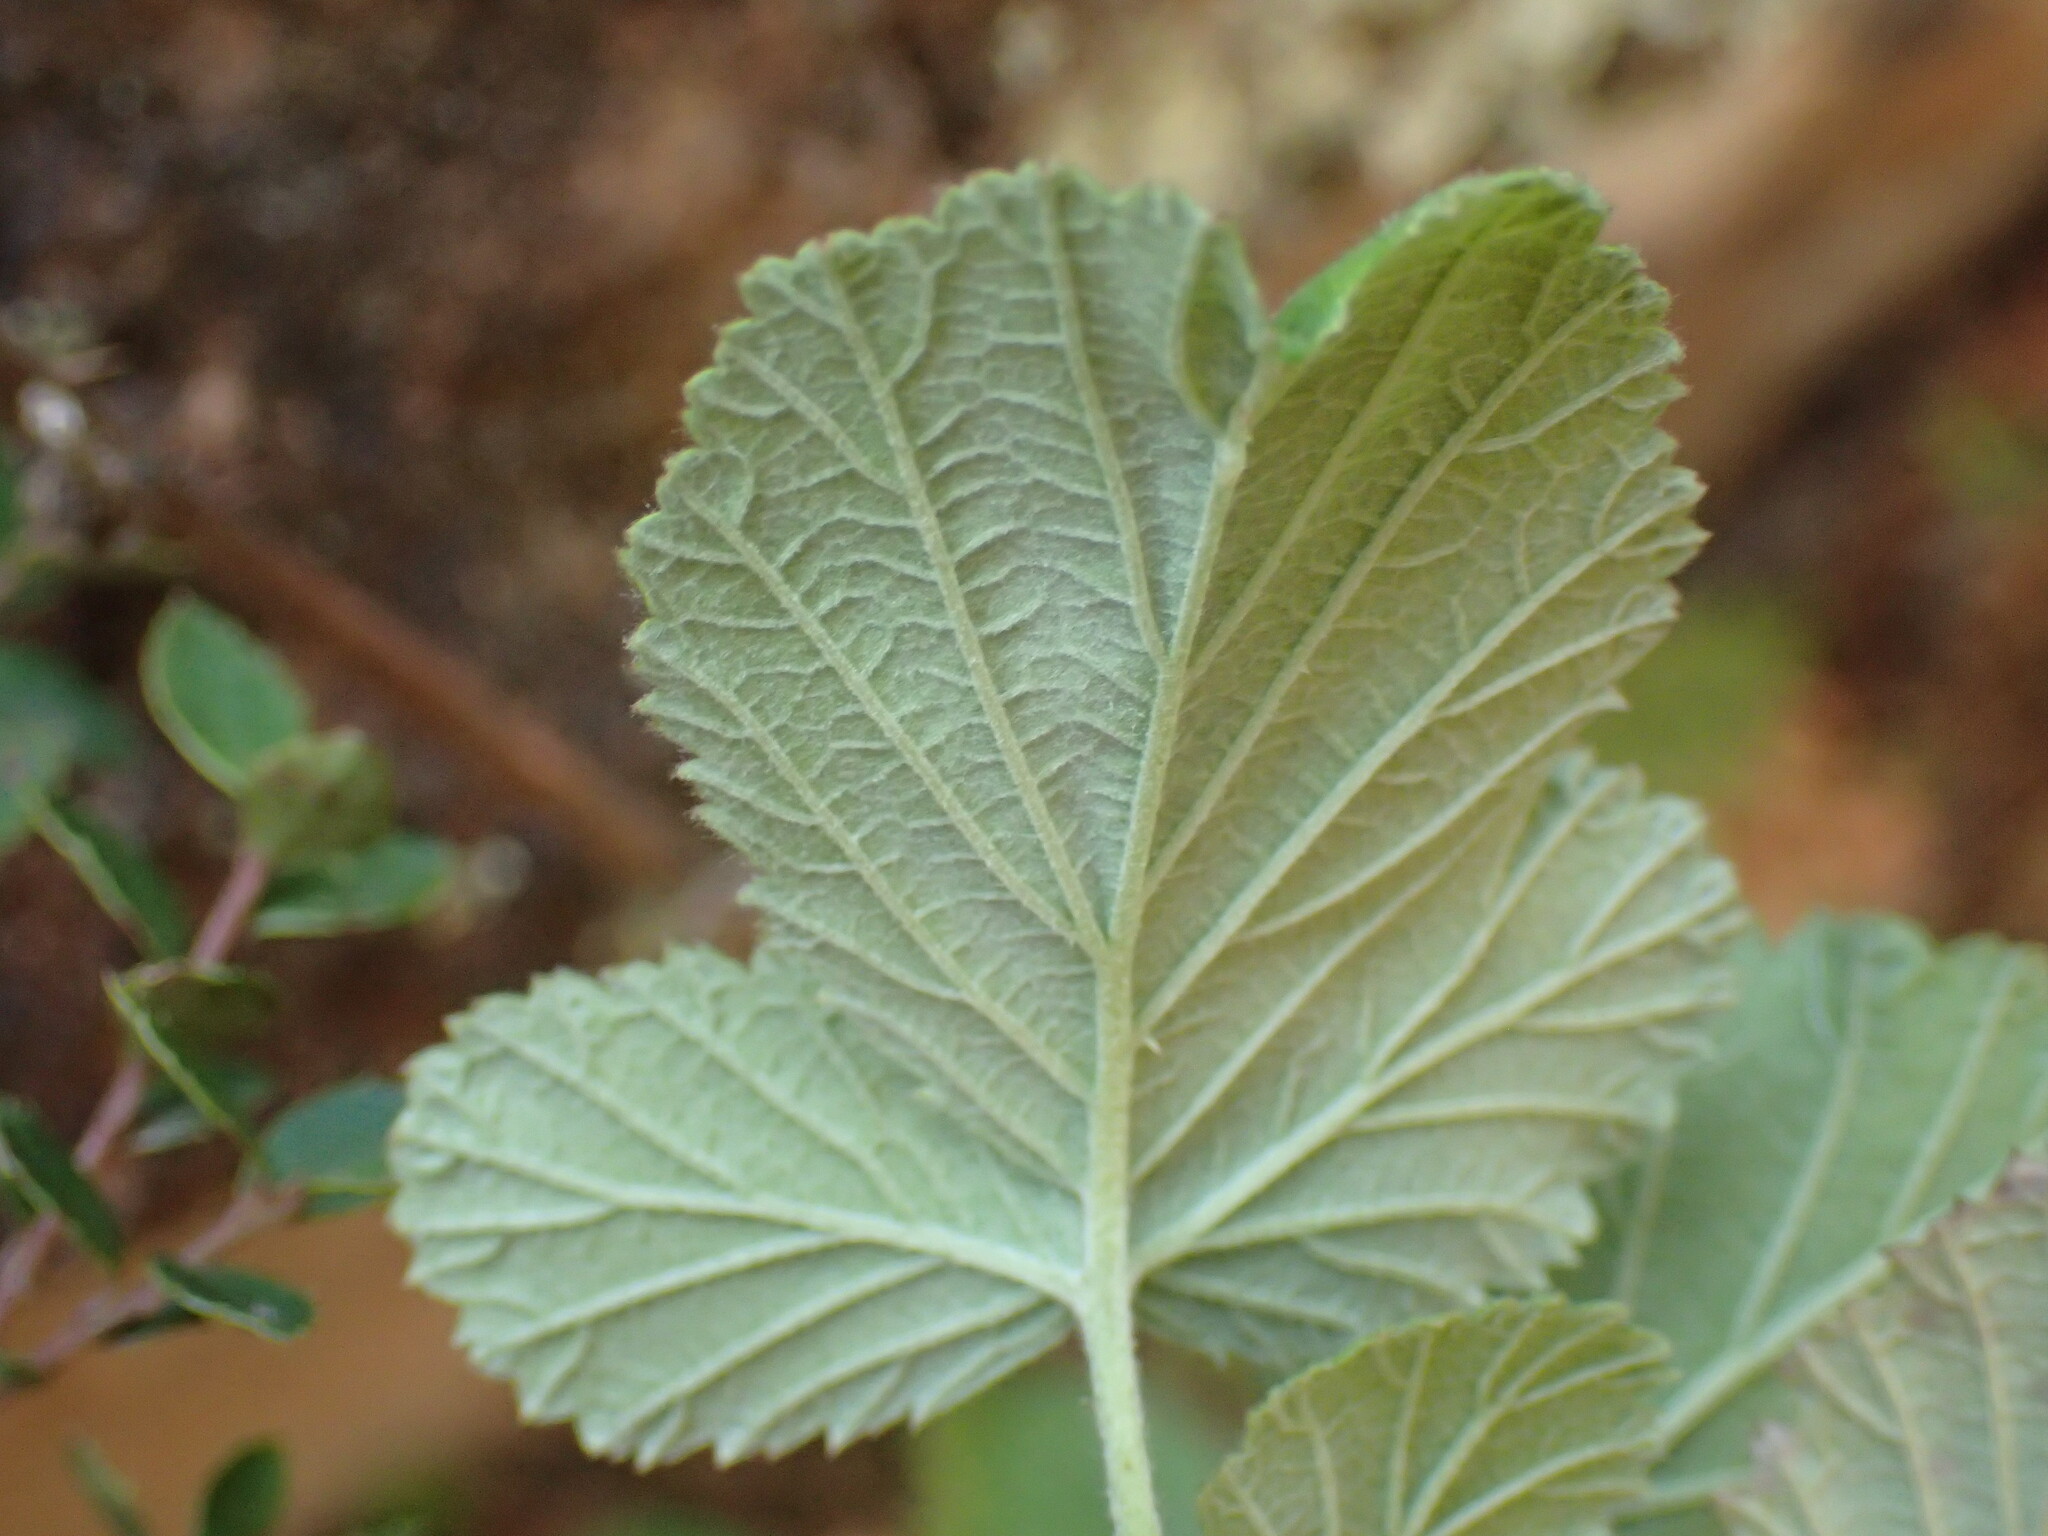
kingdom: Plantae
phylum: Tracheophyta
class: Magnoliopsida
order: Rosales
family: Rosaceae
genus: Rubus
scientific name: Rubus rigidus
